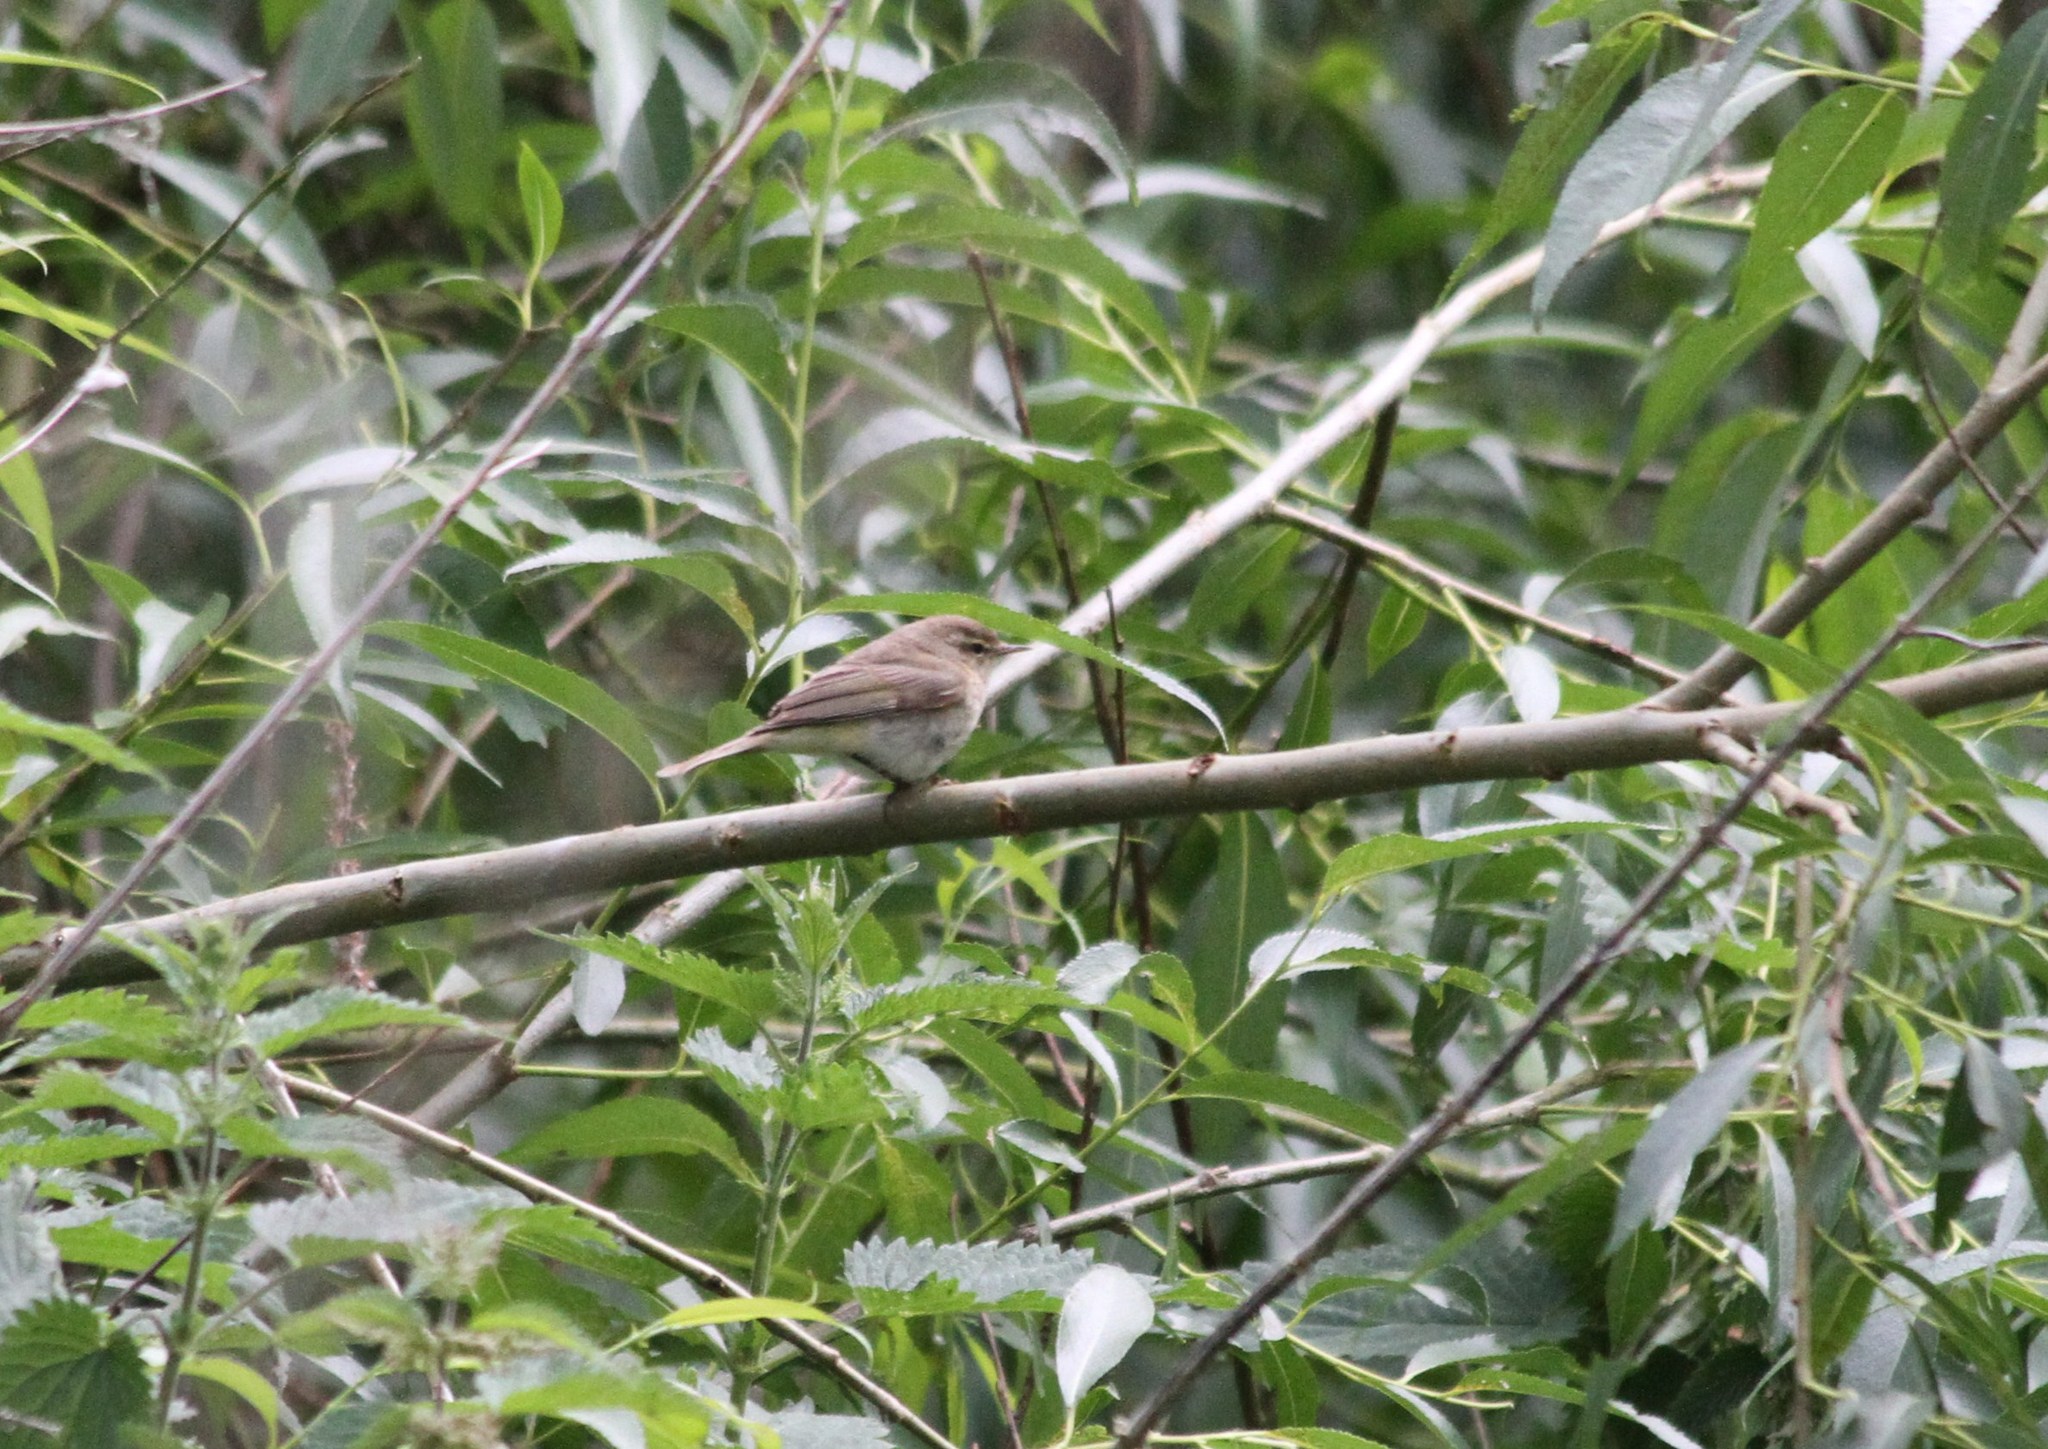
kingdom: Animalia
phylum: Chordata
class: Aves
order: Passeriformes
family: Phylloscopidae
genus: Phylloscopus
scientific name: Phylloscopus collybita
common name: Common chiffchaff
